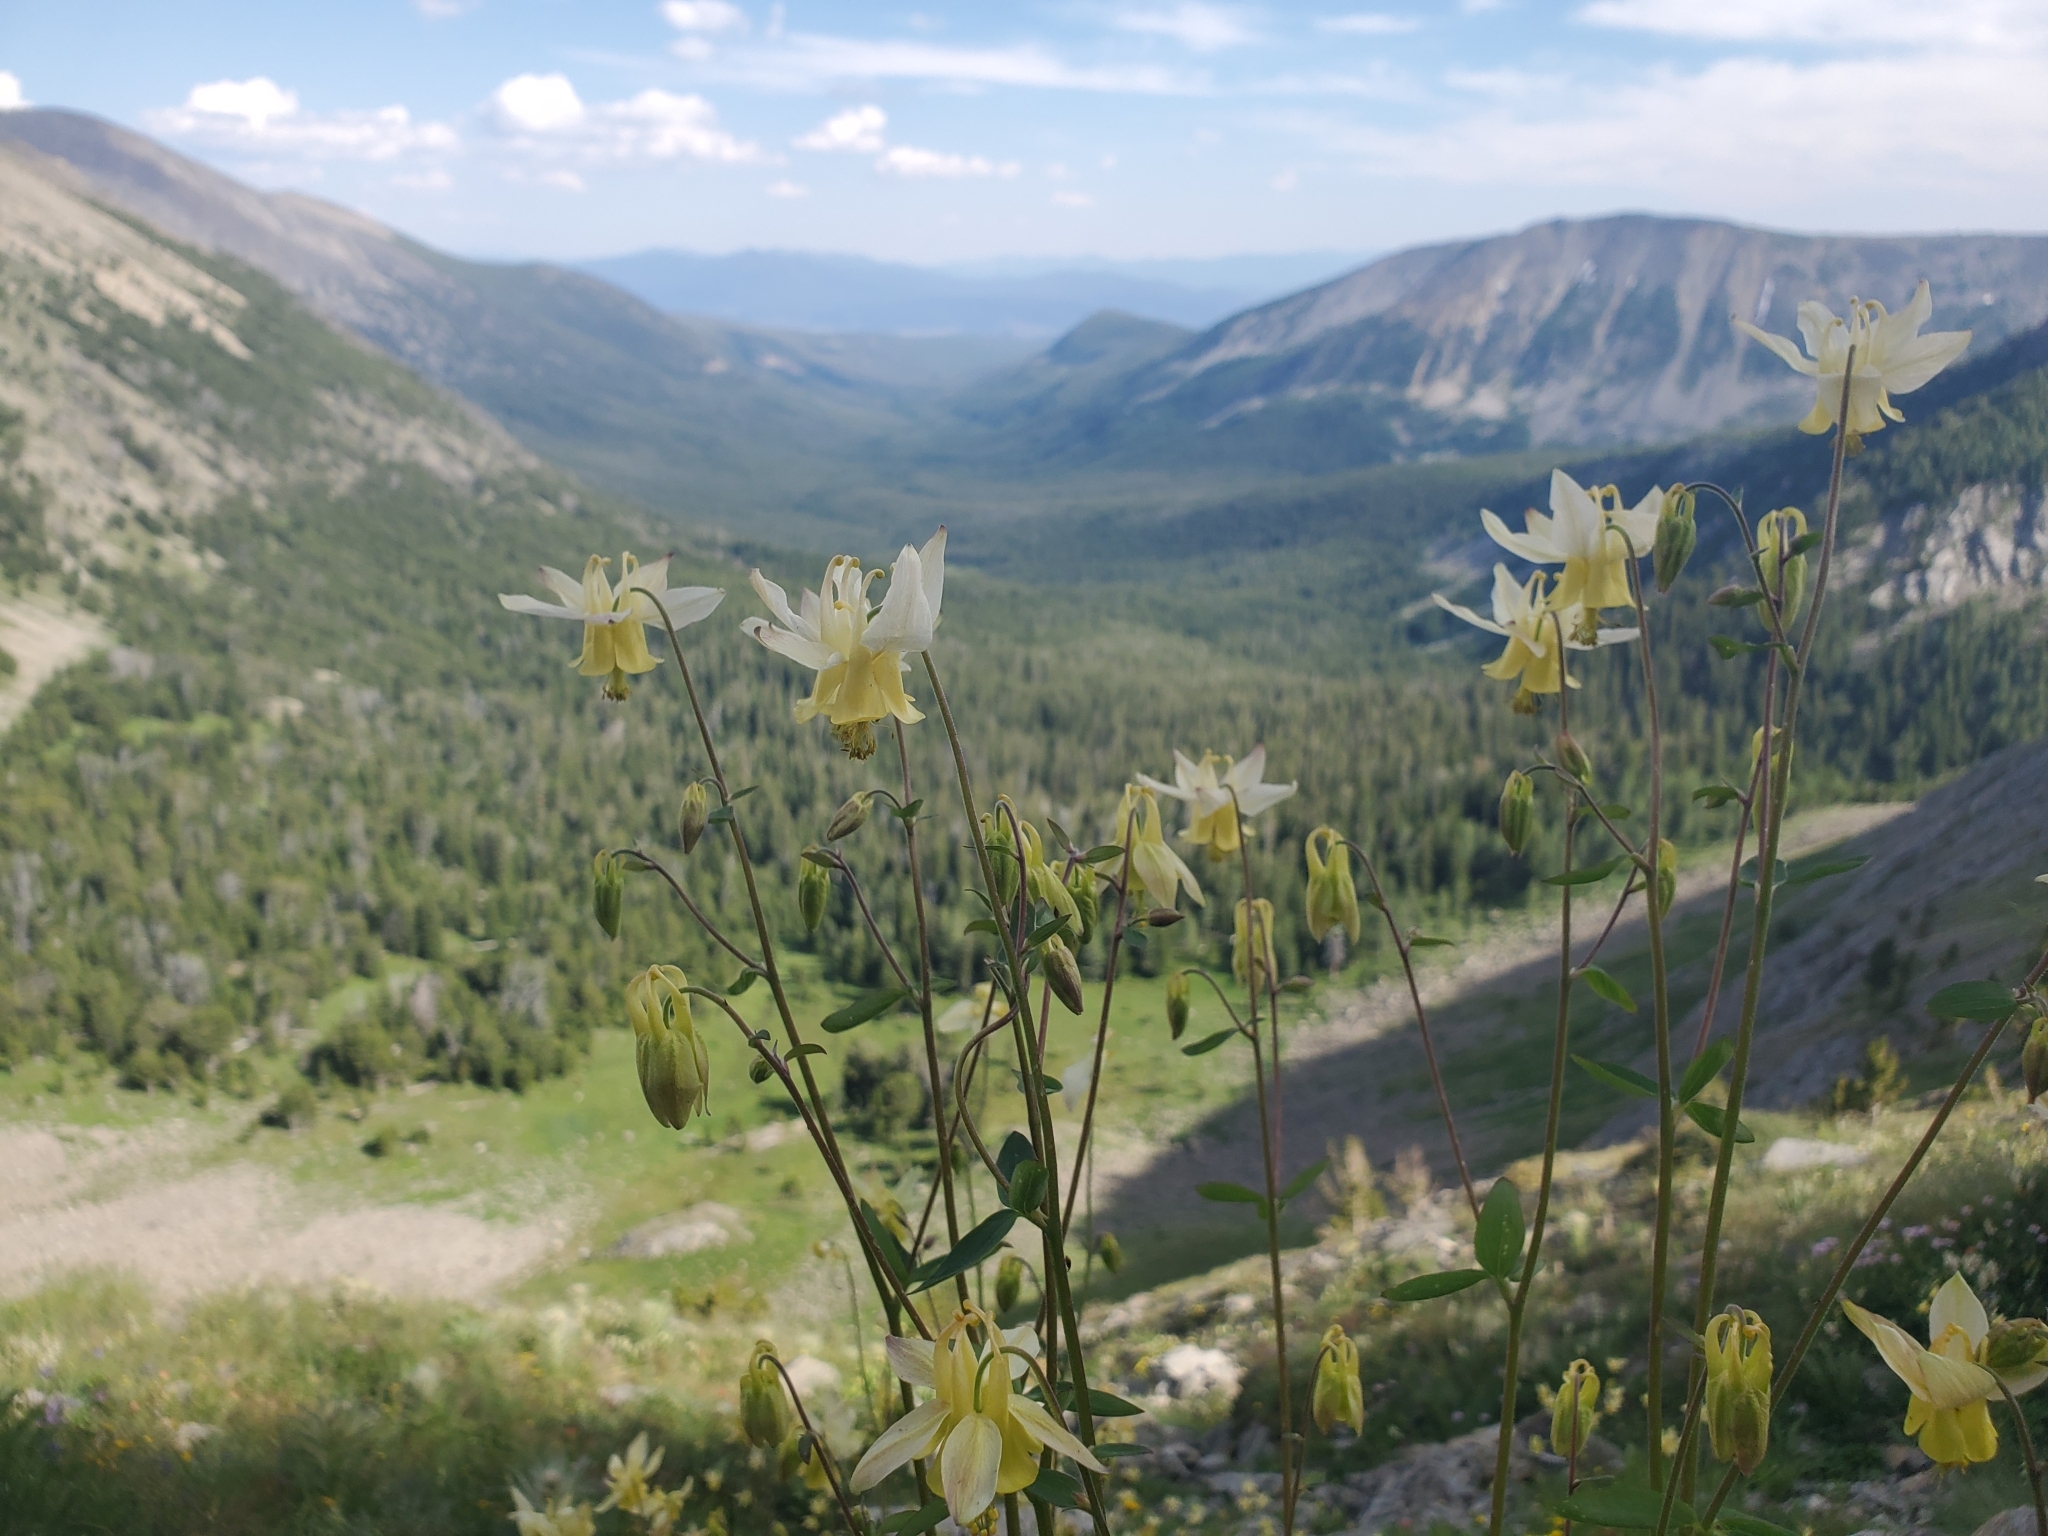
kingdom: Plantae
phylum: Tracheophyta
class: Magnoliopsida
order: Ranunculales
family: Ranunculaceae
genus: Aquilegia
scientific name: Aquilegia flavescens
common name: Yellow columbine
